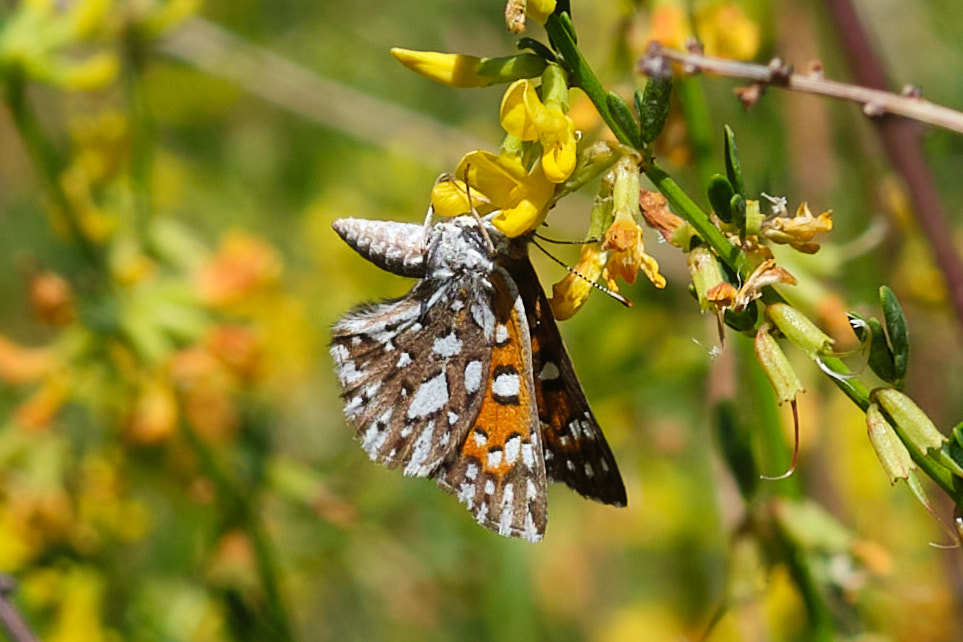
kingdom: Animalia
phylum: Arthropoda
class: Insecta
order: Lepidoptera
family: Riodinidae
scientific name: Riodinidae
